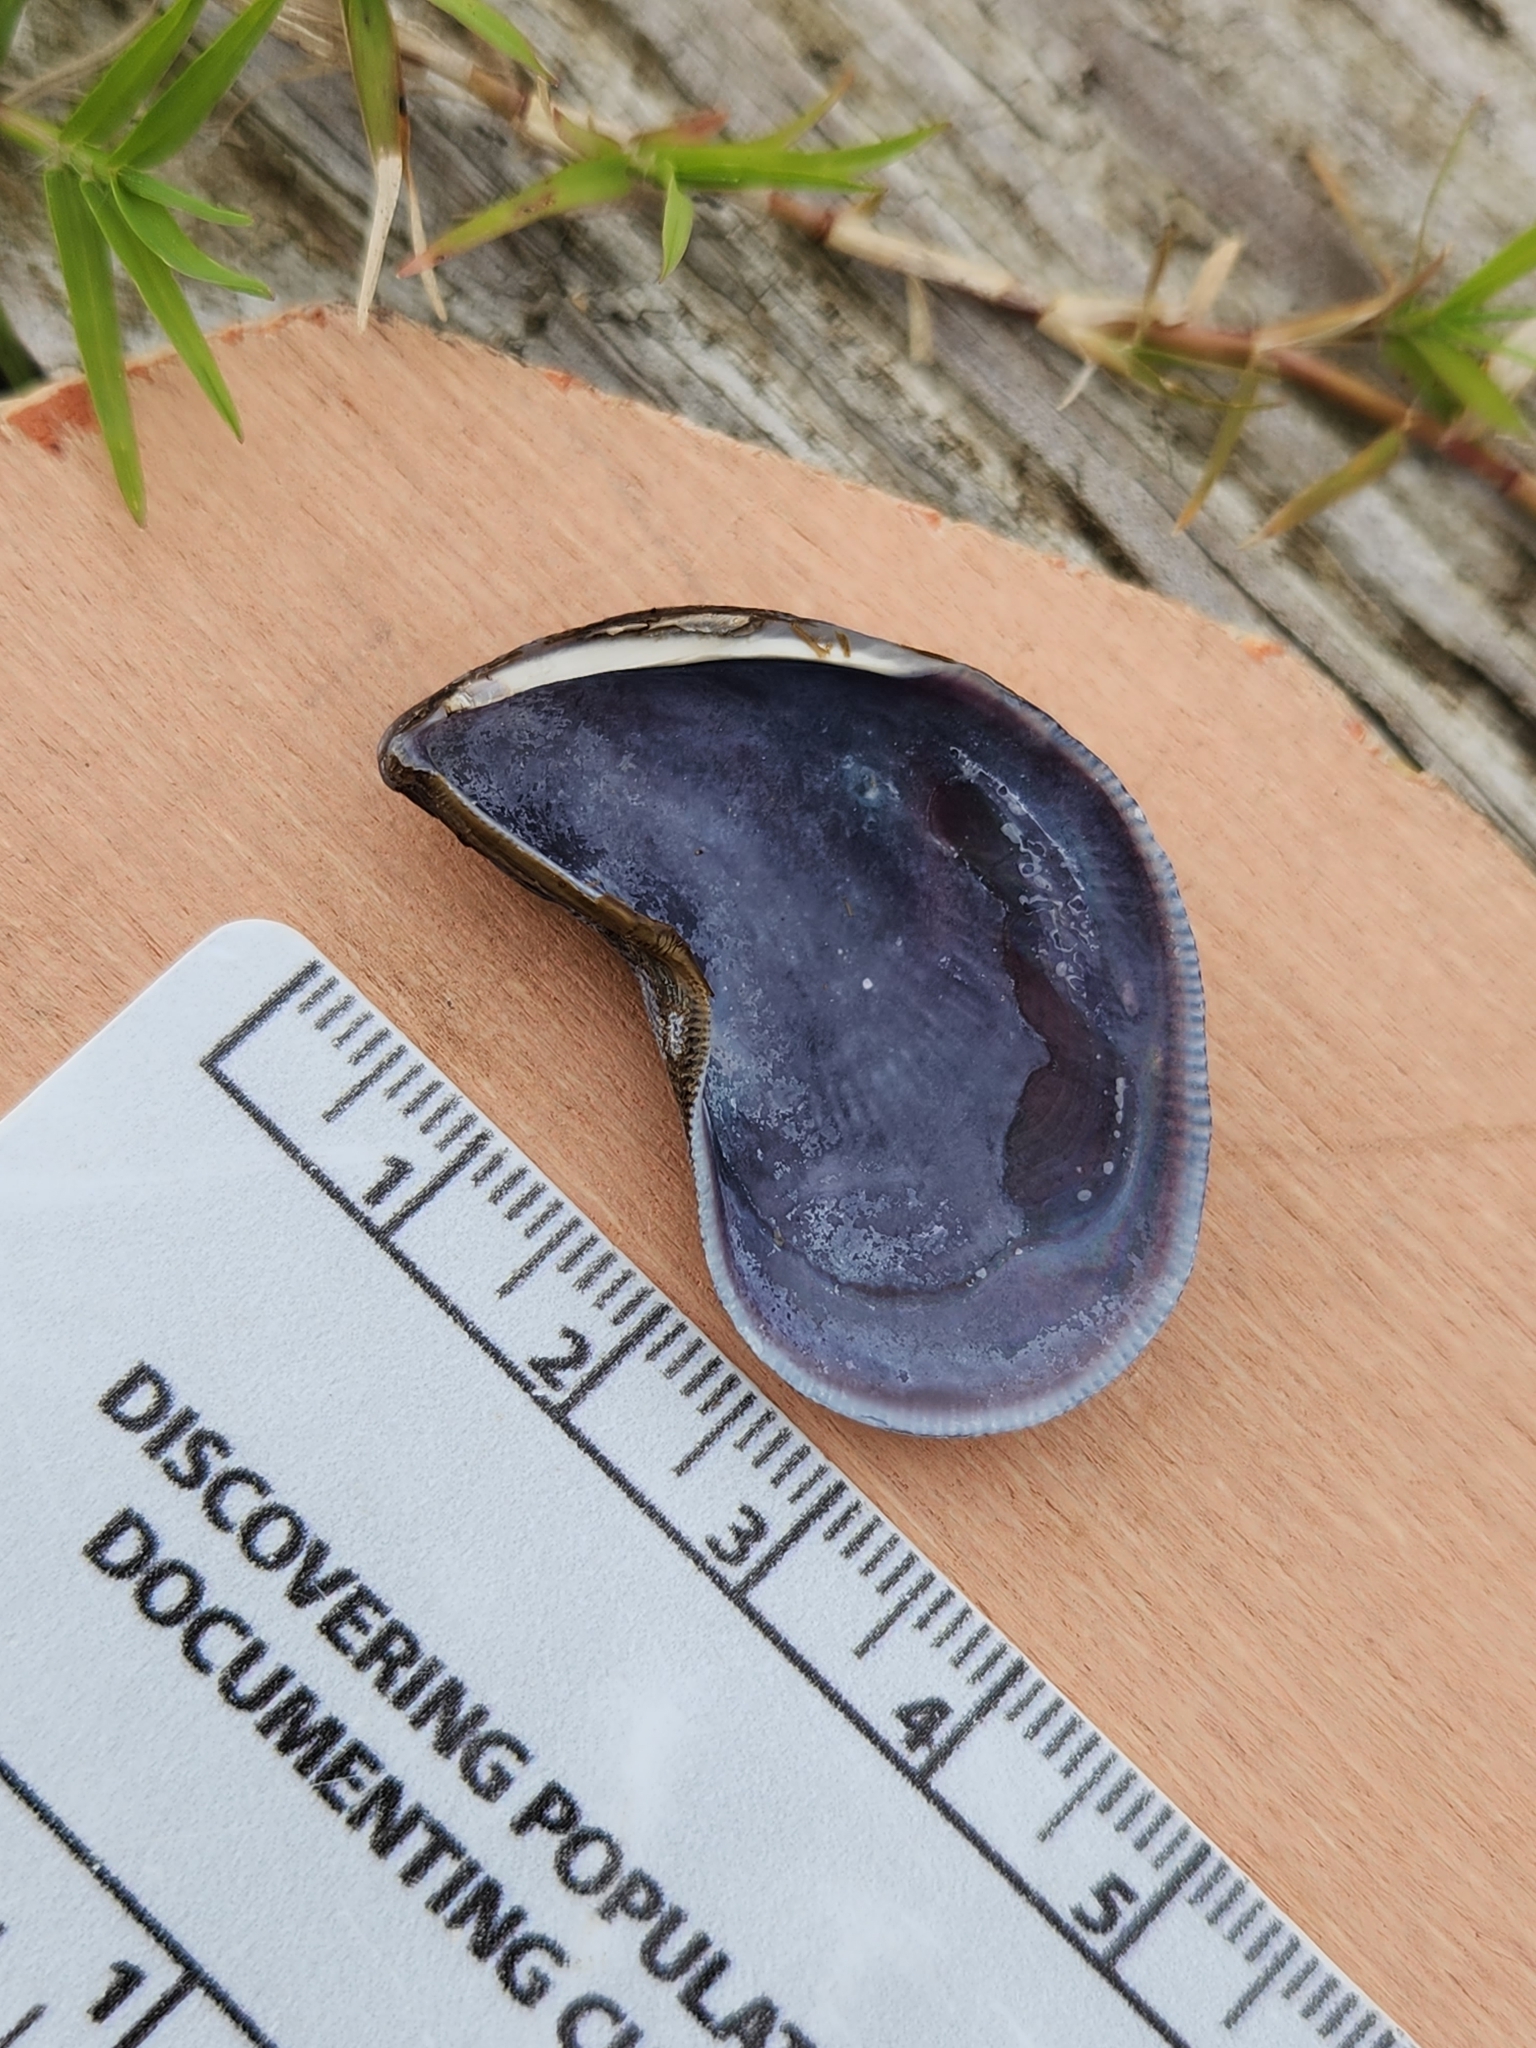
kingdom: Animalia
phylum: Mollusca
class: Bivalvia
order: Mytilida
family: Mytilidae
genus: Ischadium
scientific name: Ischadium recurvum
